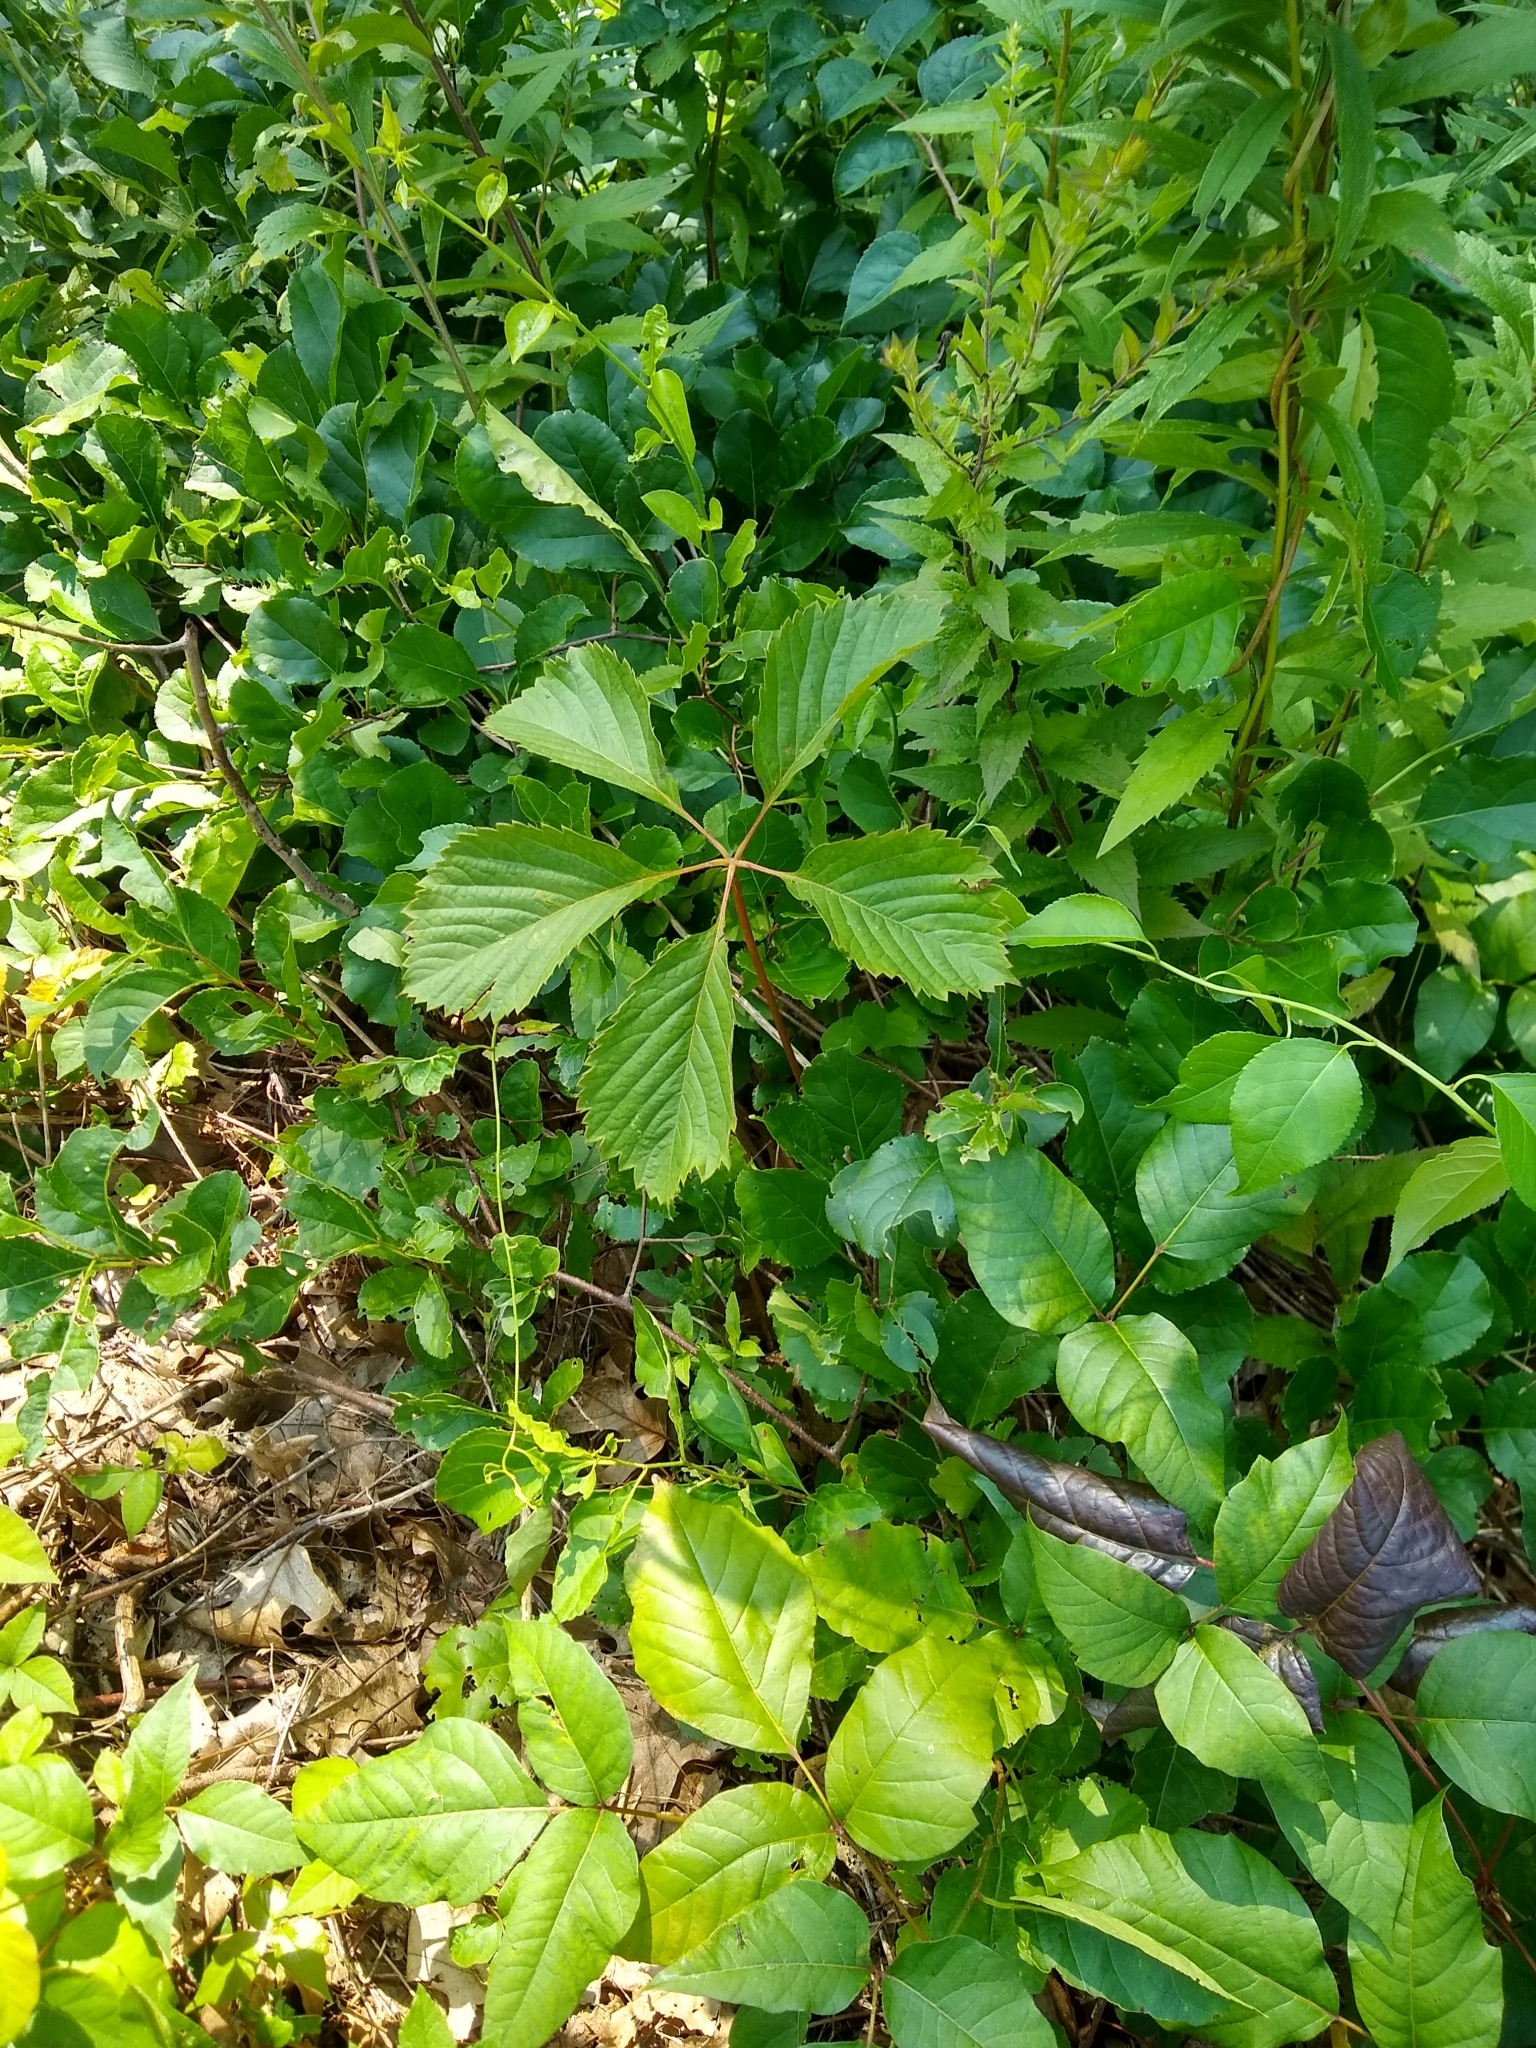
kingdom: Plantae
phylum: Tracheophyta
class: Magnoliopsida
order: Vitales
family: Vitaceae
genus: Parthenocissus
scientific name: Parthenocissus inserta
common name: False virginia-creeper
